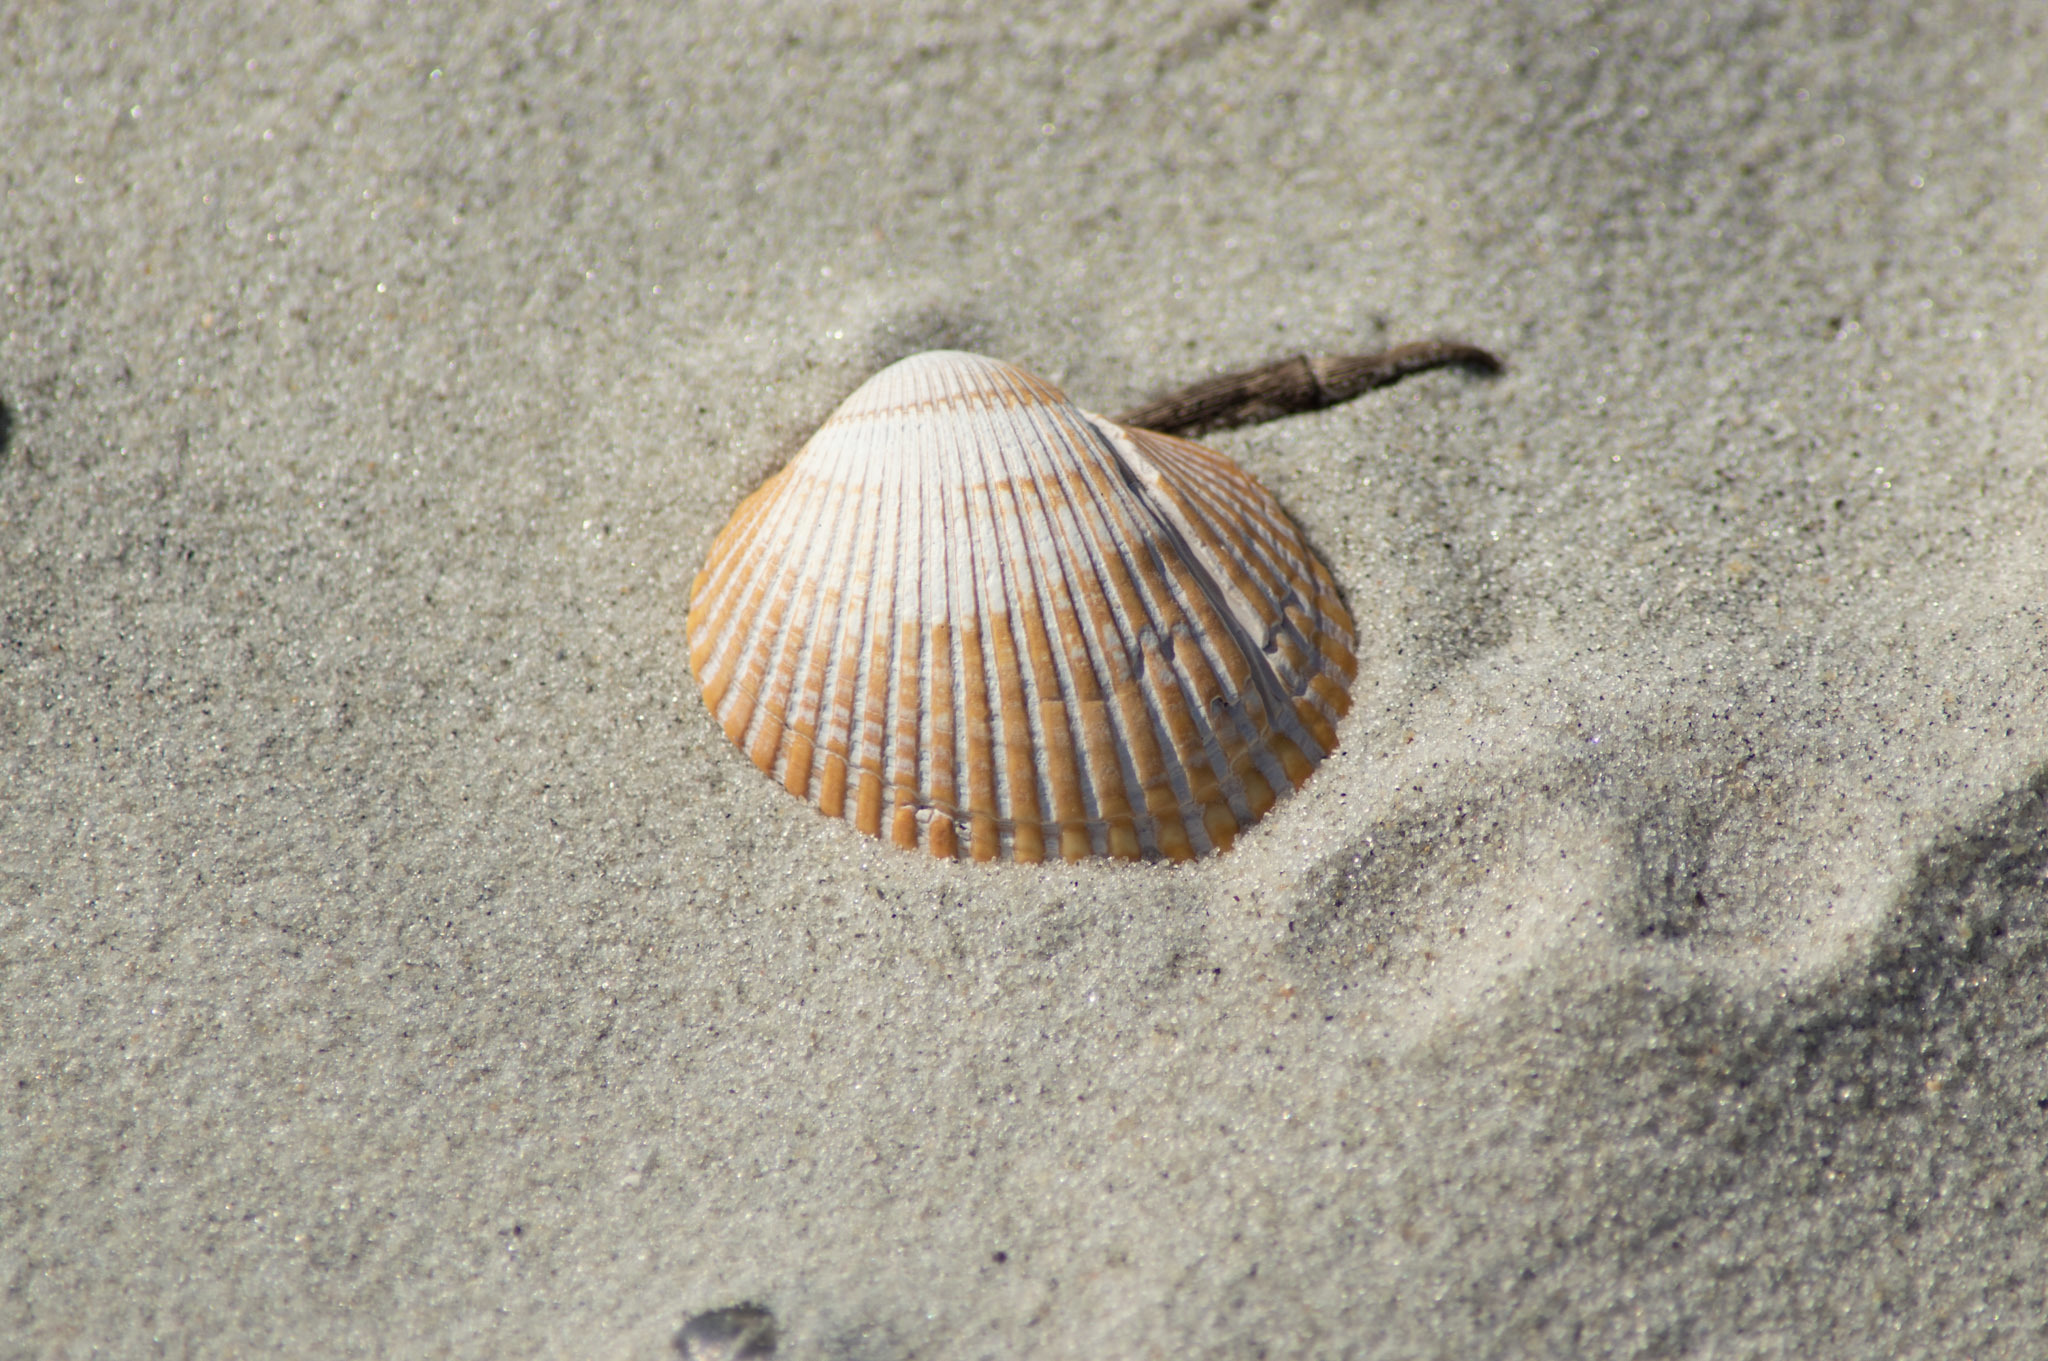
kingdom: Animalia
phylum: Mollusca
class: Bivalvia
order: Arcida
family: Arcidae
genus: Lunarca
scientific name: Lunarca ovalis
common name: Blood ark
